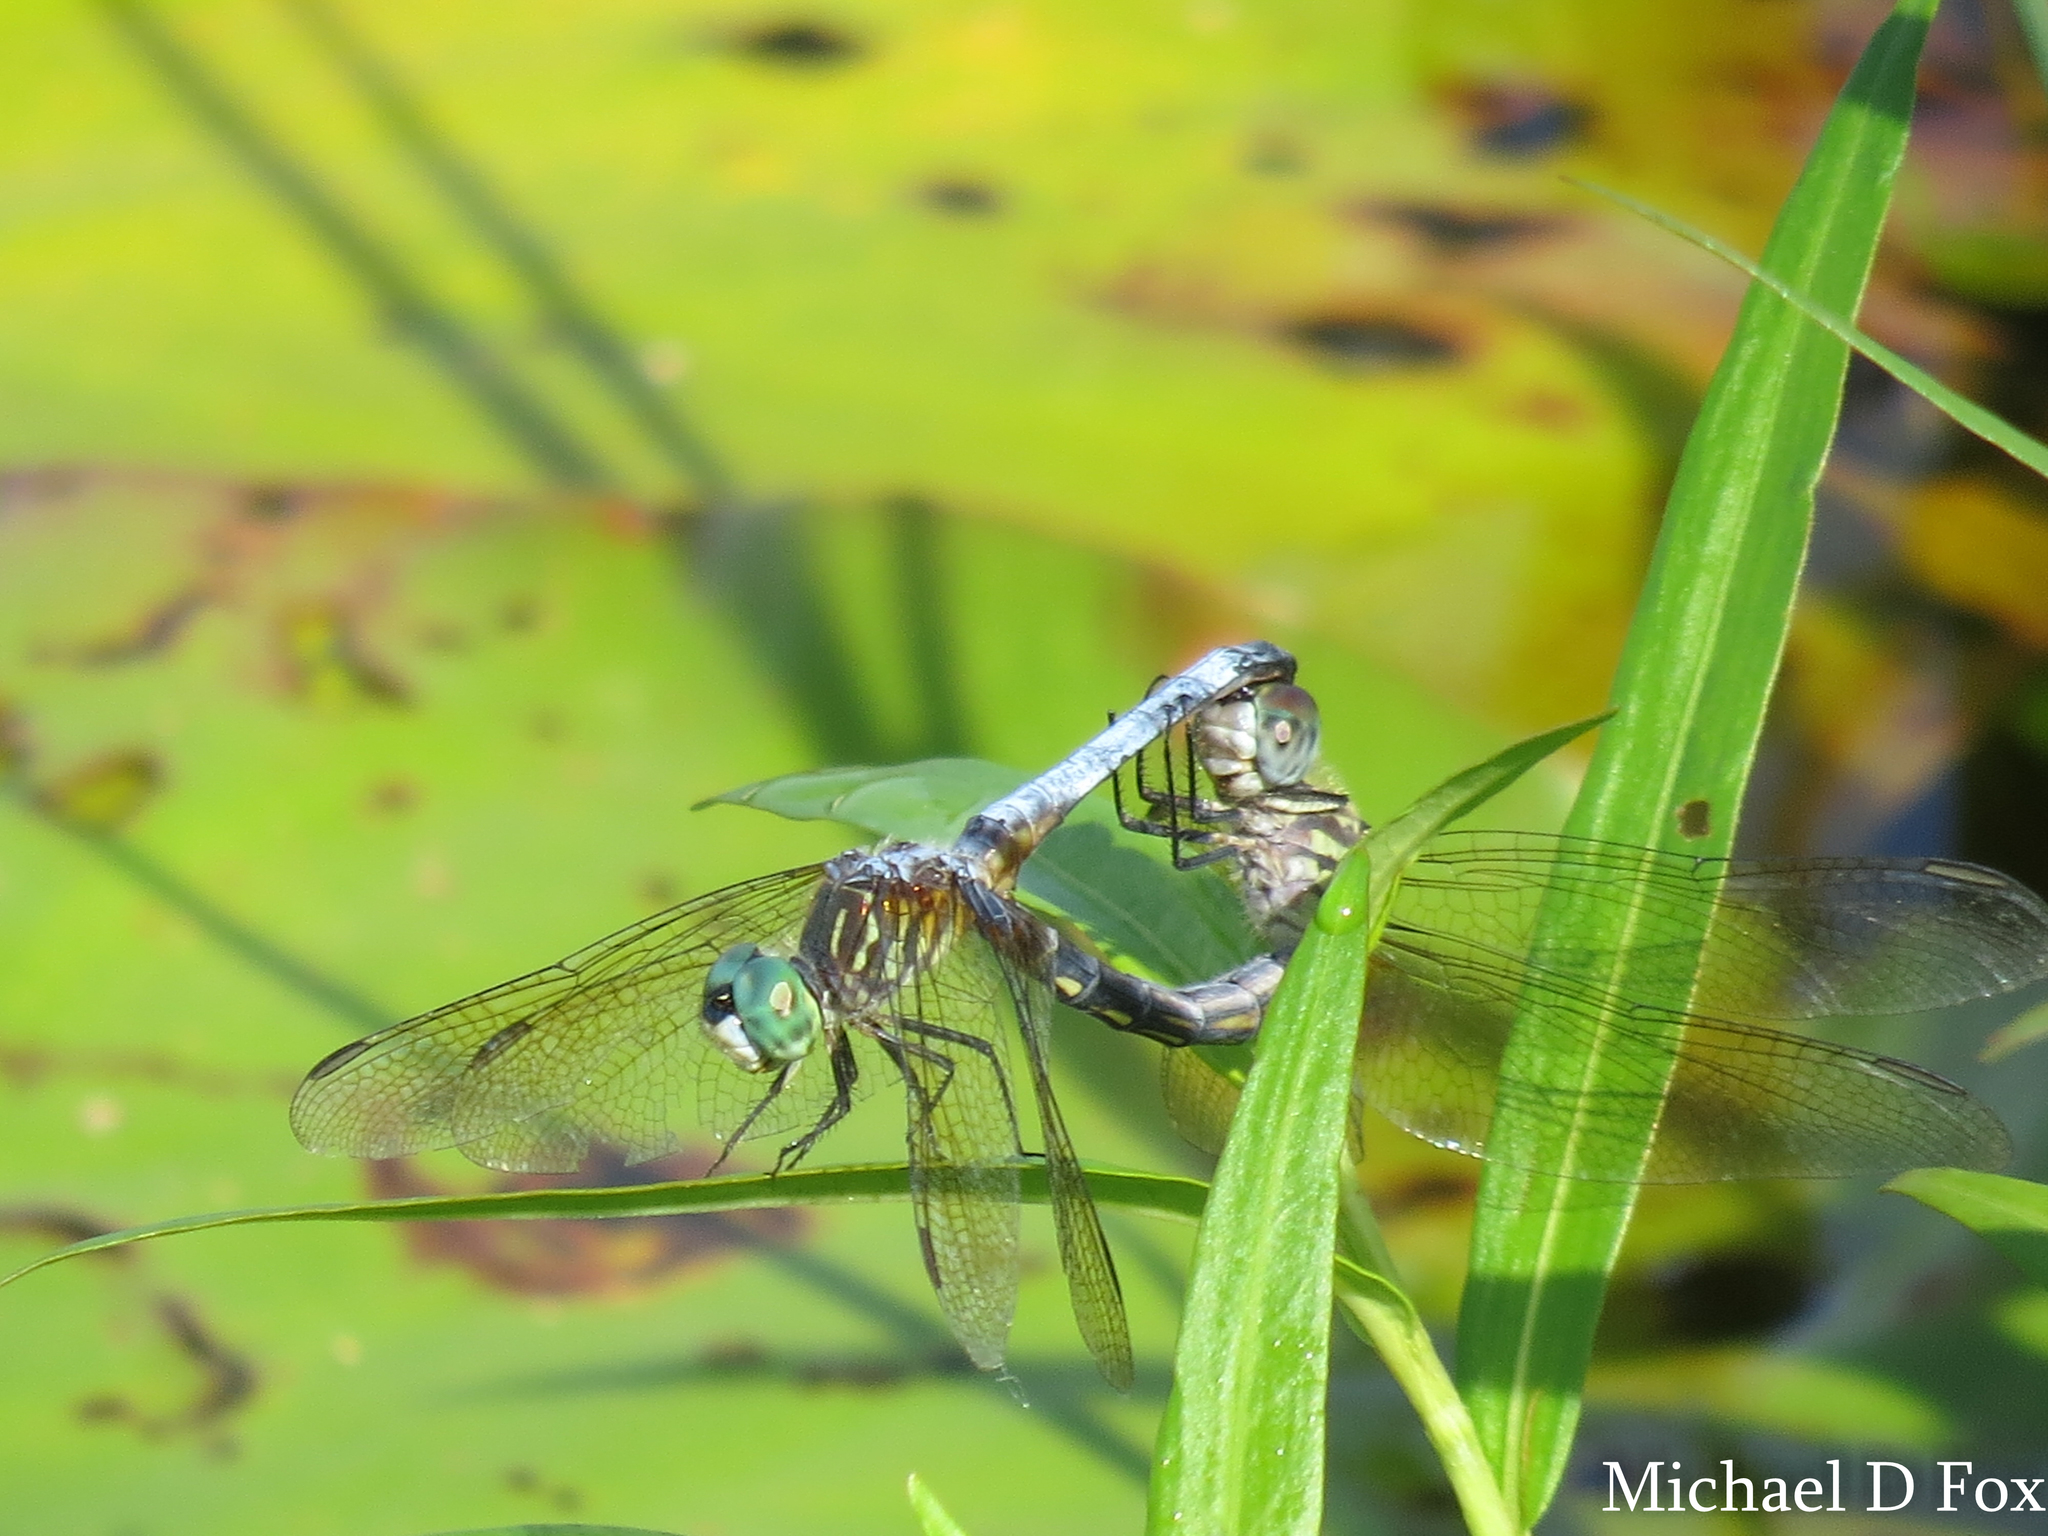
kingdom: Animalia
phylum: Arthropoda
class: Insecta
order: Odonata
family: Libellulidae
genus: Pachydiplax
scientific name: Pachydiplax longipennis
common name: Blue dasher
